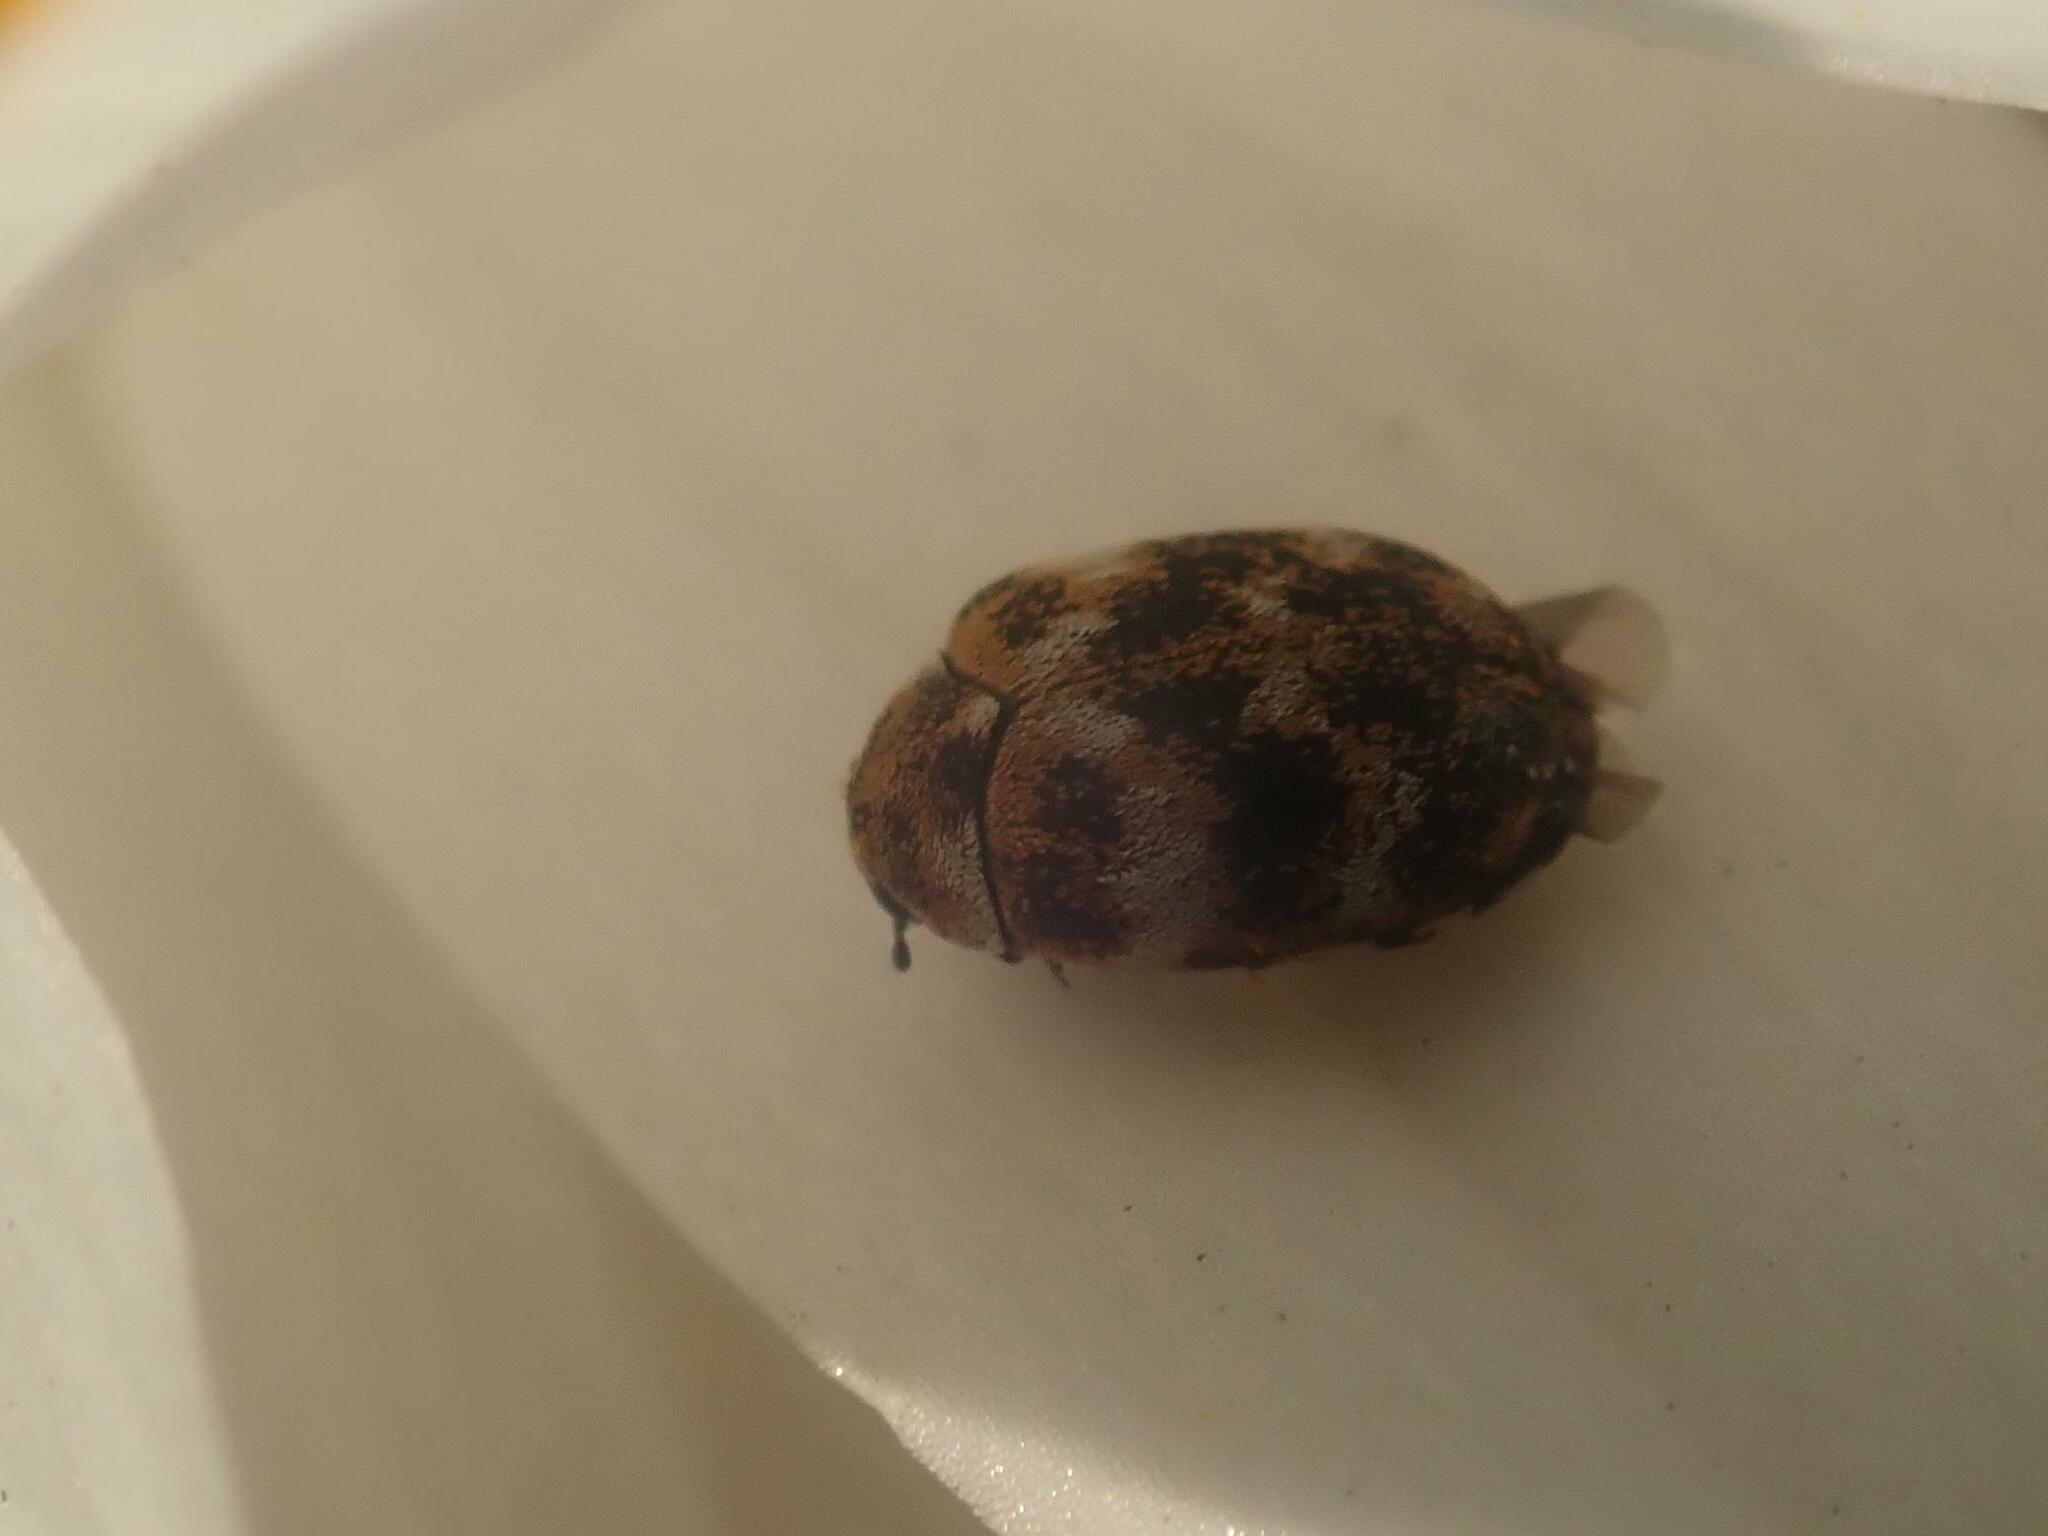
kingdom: Animalia
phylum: Arthropoda
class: Insecta
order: Coleoptera
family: Dermestidae
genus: Anthrenus
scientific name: Anthrenus verbasci
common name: Varied carpet beetle
